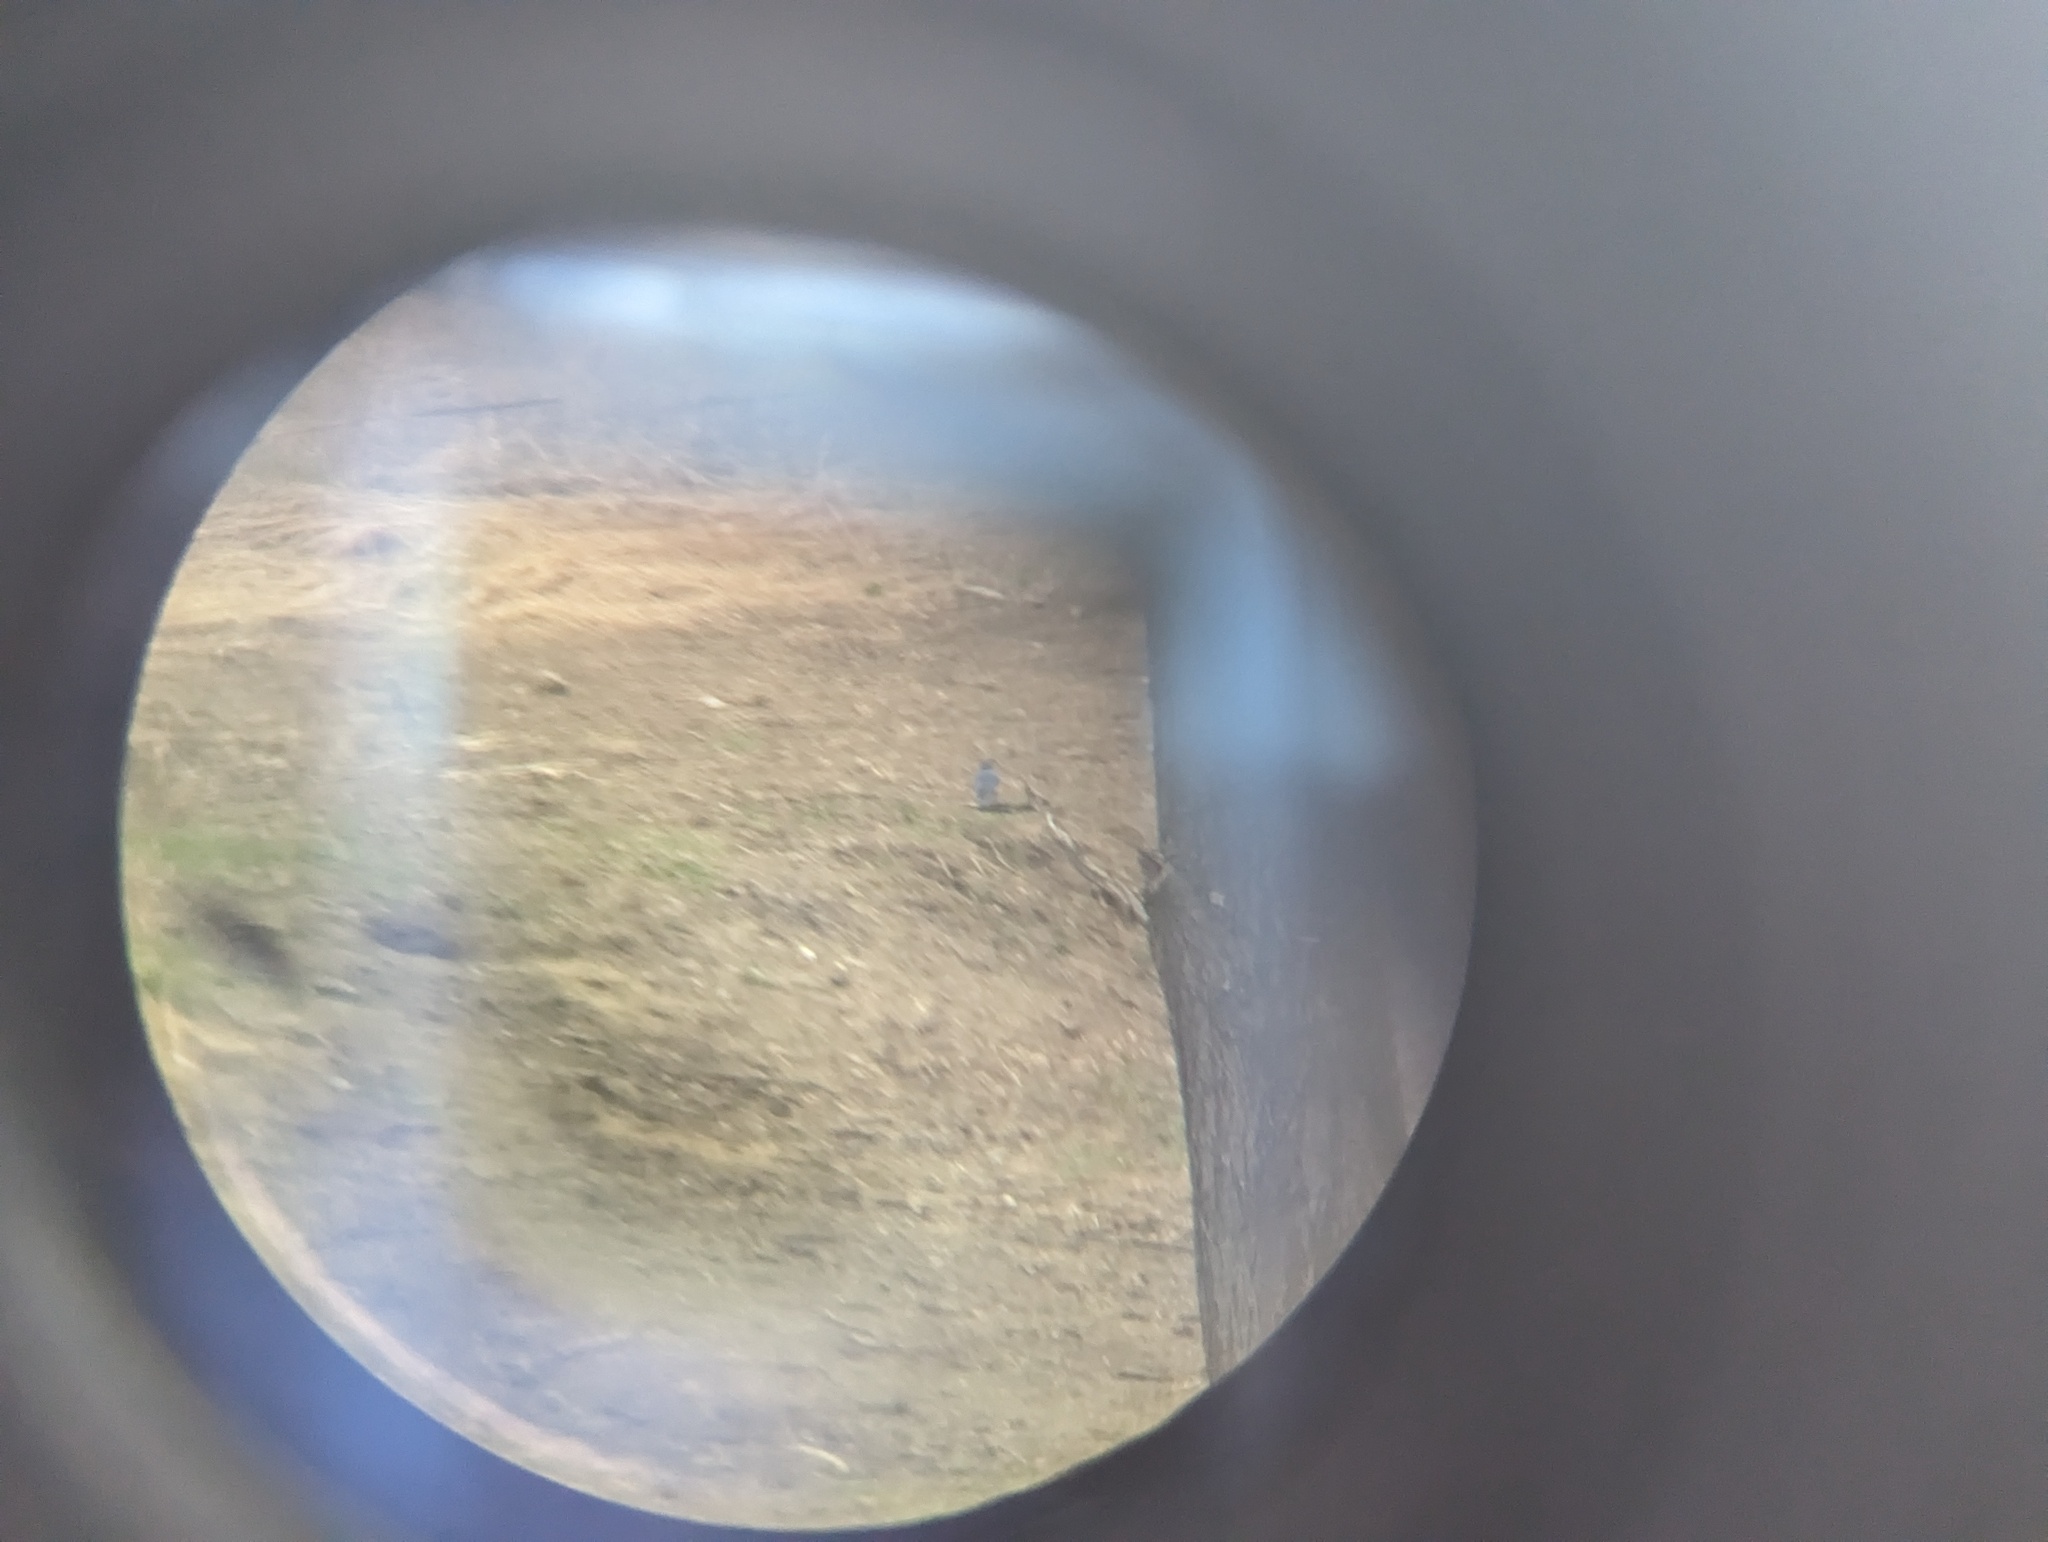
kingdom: Animalia
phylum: Chordata
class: Aves
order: Passeriformes
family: Turdidae
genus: Sialia
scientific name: Sialia sialis
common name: Eastern bluebird
